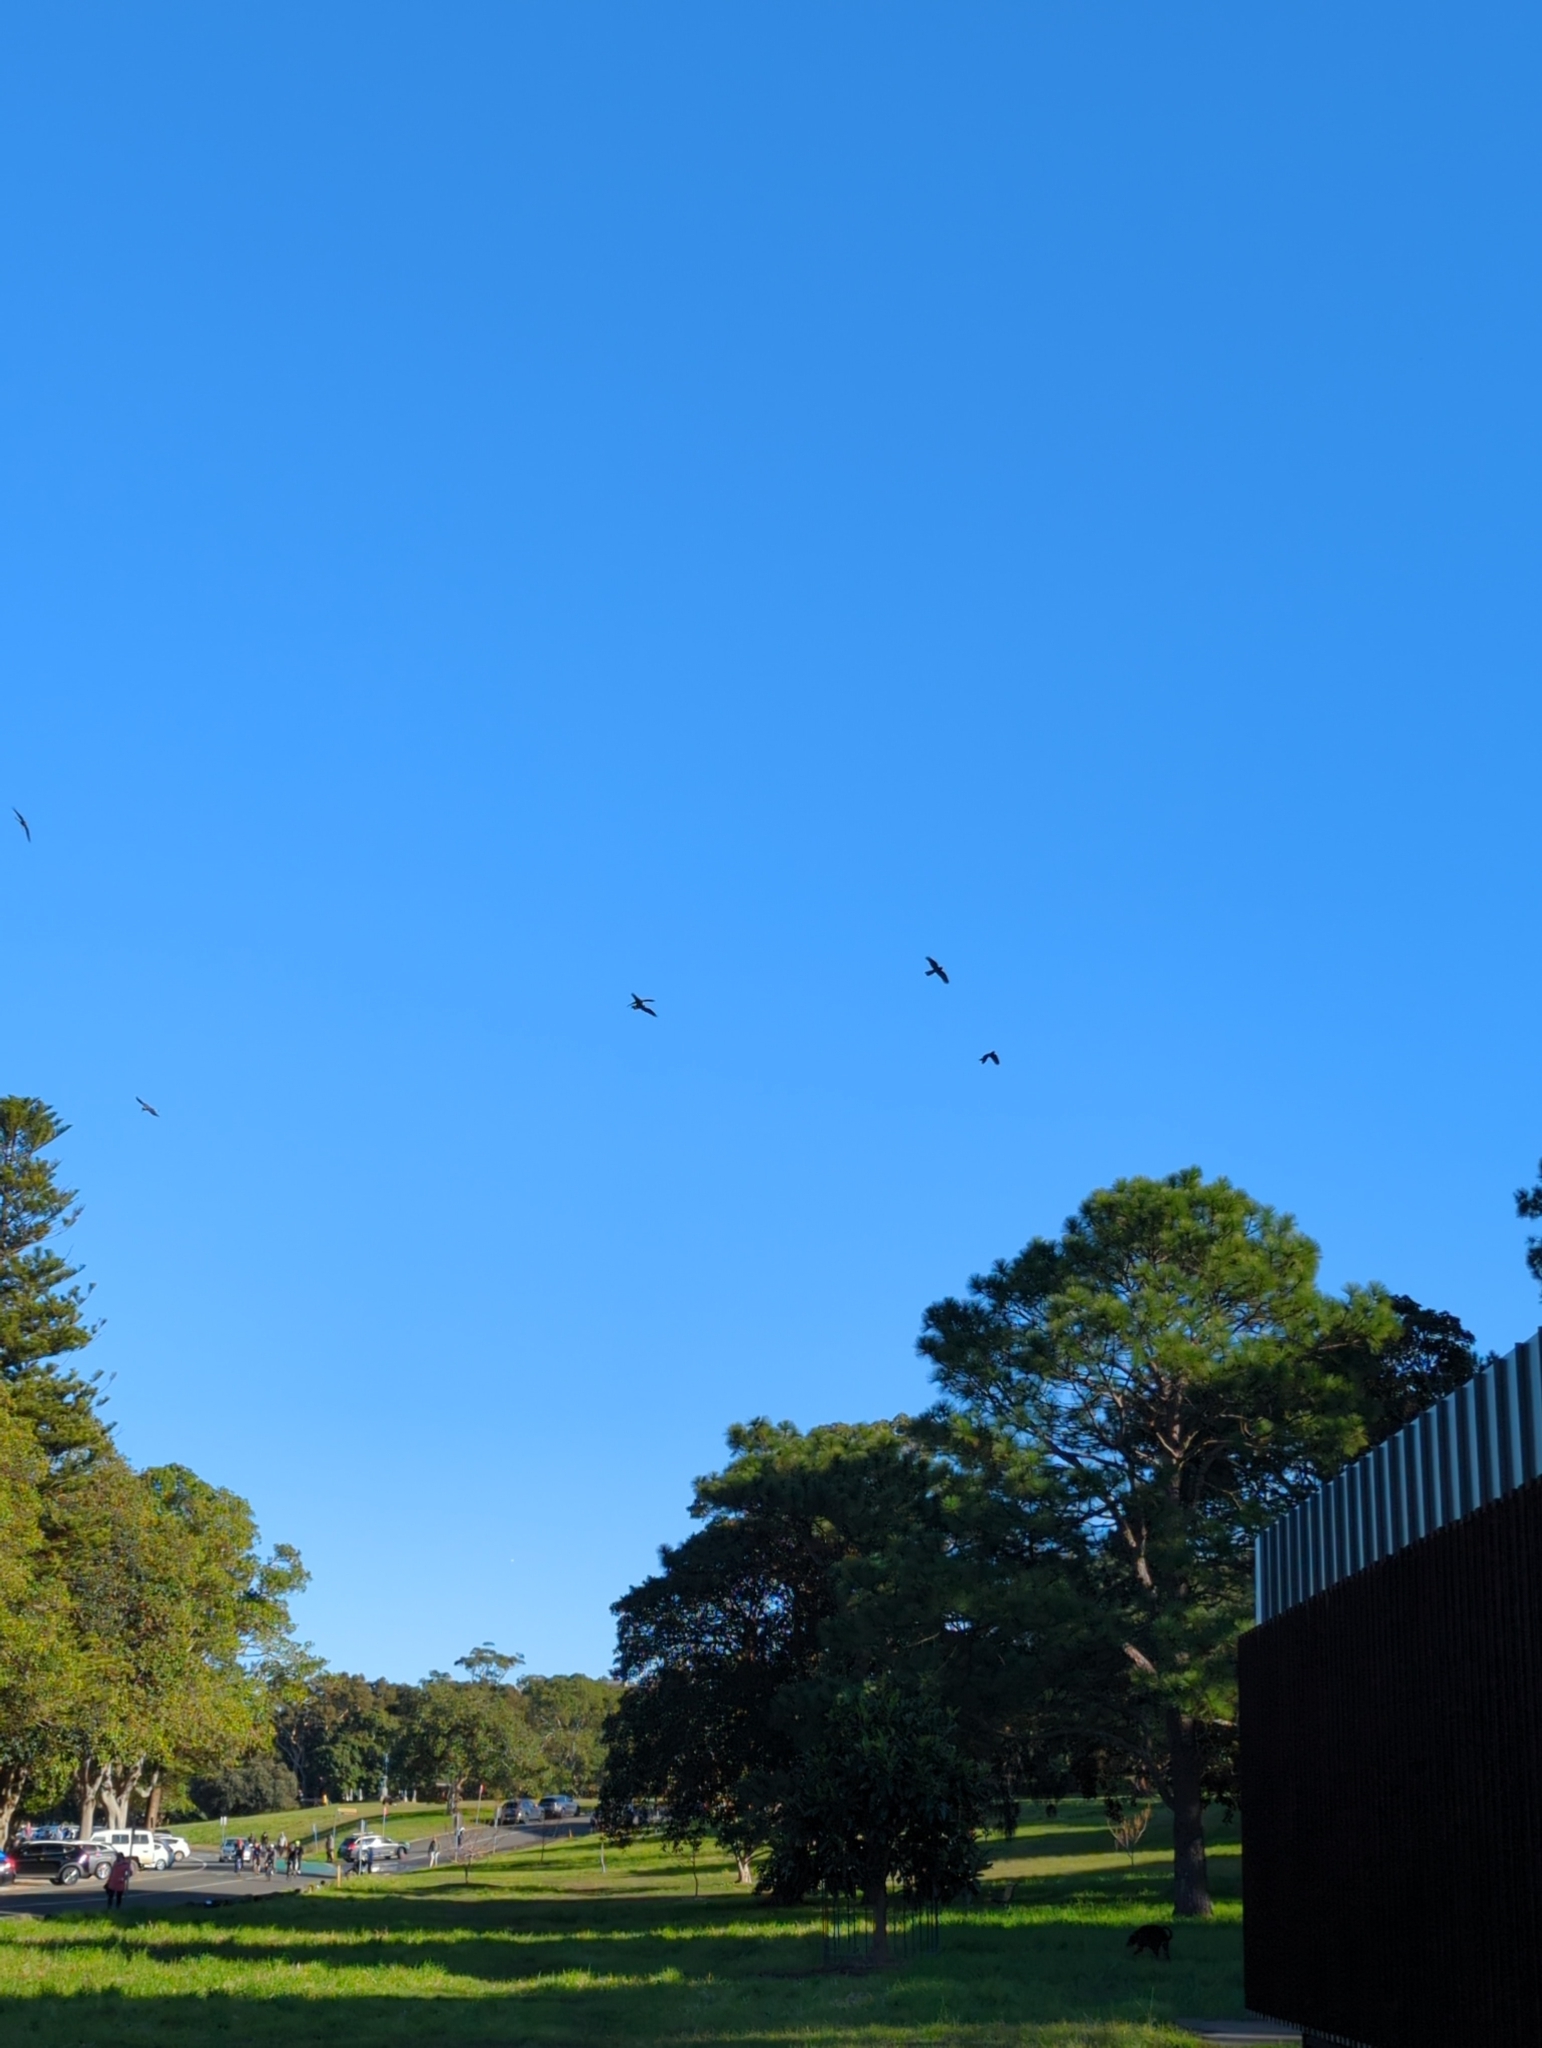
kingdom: Animalia
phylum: Chordata
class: Aves
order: Psittaciformes
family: Cacatuidae
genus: Zanda
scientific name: Zanda funerea
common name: Yellow-tailed black-cockatoo
